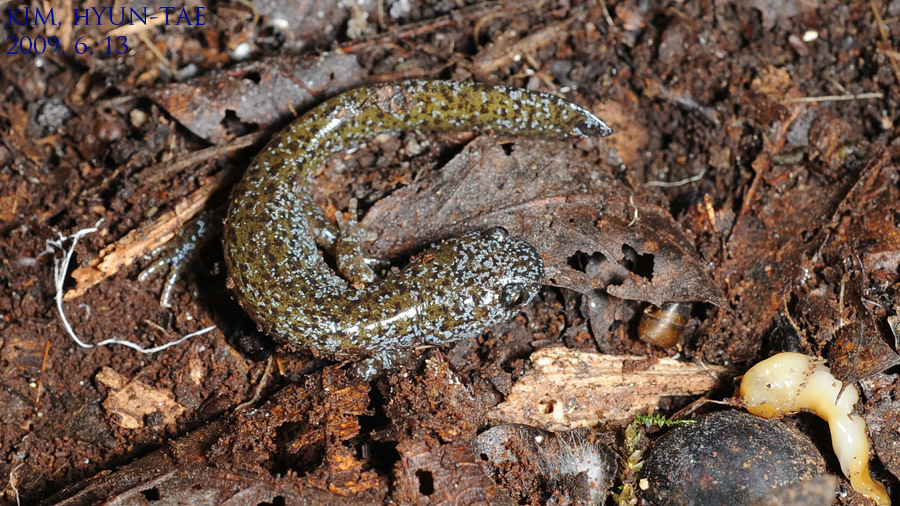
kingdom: Animalia
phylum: Chordata
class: Amphibia
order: Caudata
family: Hynobiidae
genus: Hynobius
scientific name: Hynobius leechii
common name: Gensan salamander
